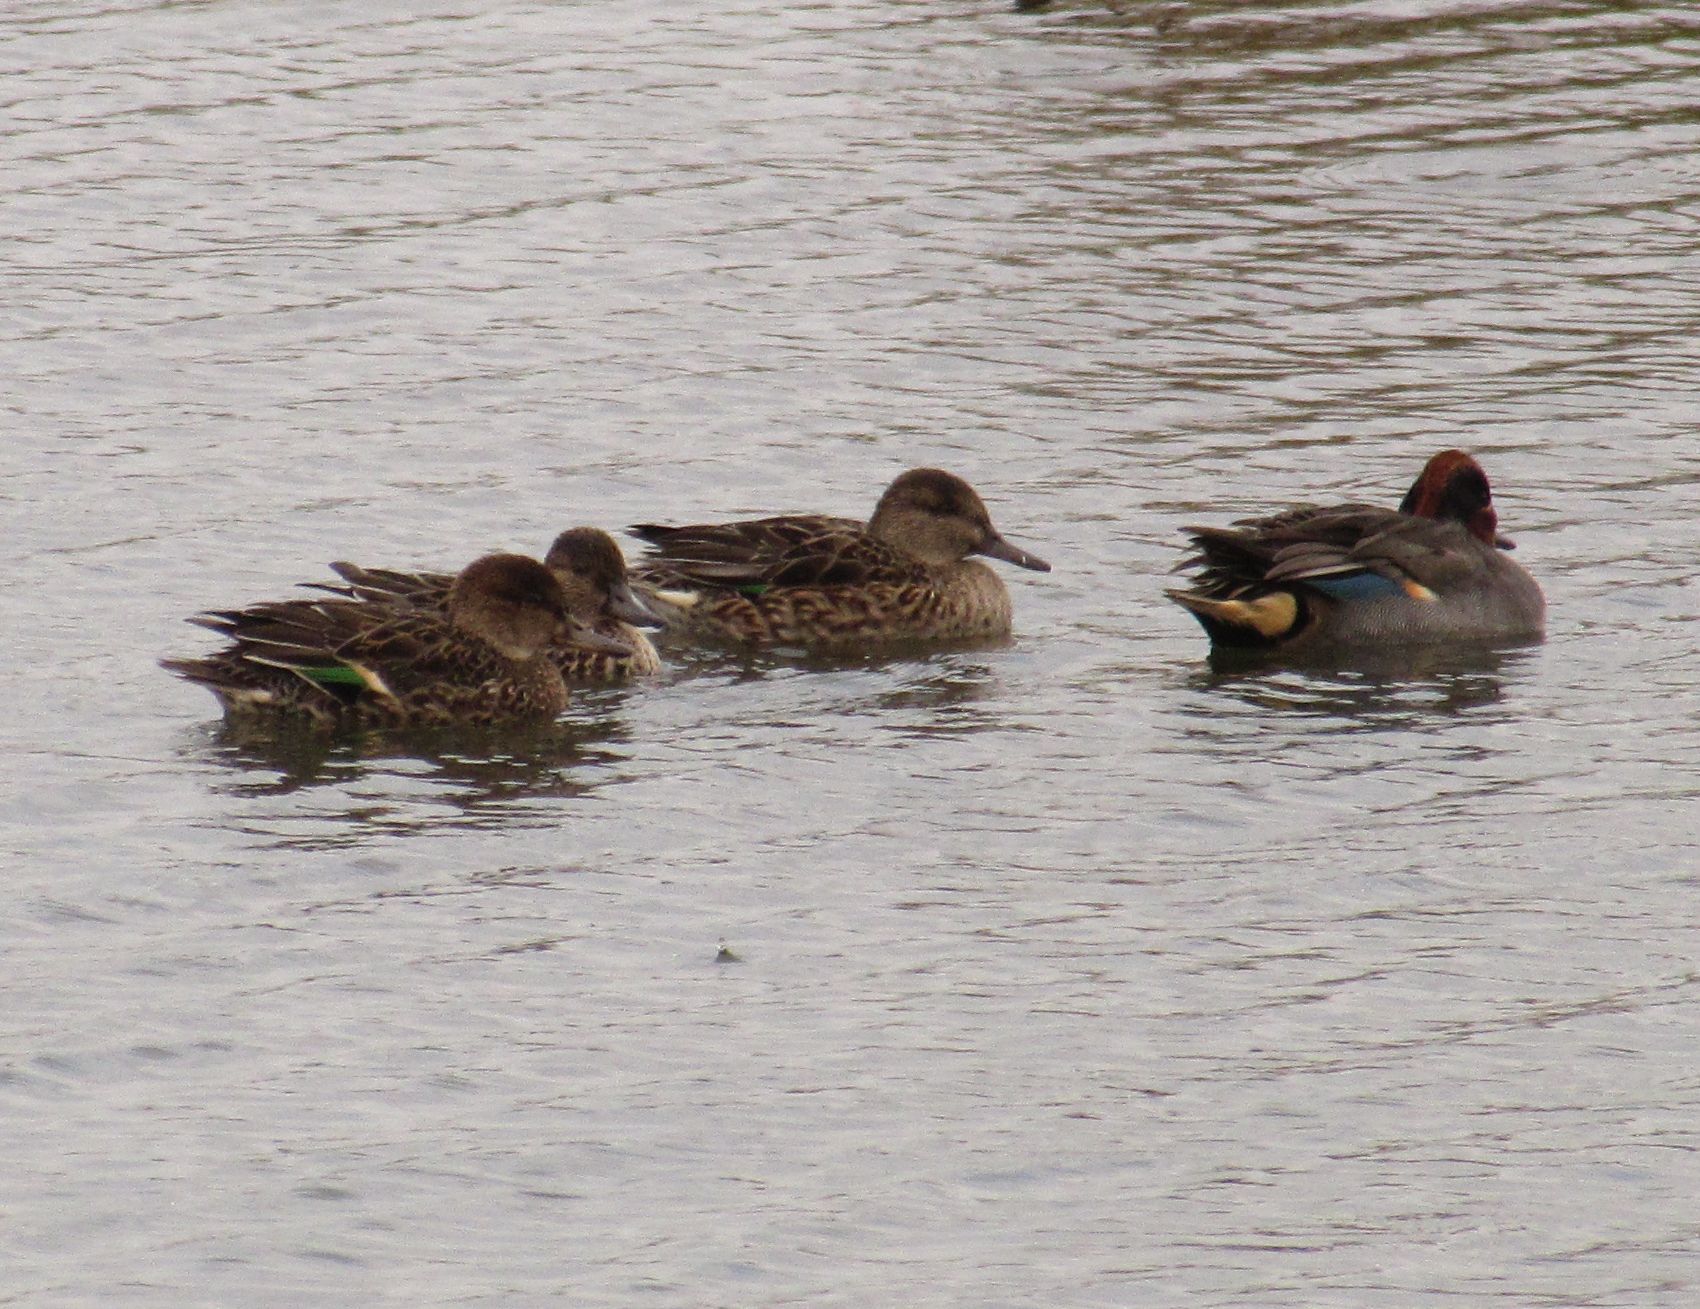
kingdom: Animalia
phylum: Chordata
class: Aves
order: Anseriformes
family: Anatidae
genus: Anas
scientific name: Anas crecca
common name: Eurasian teal
